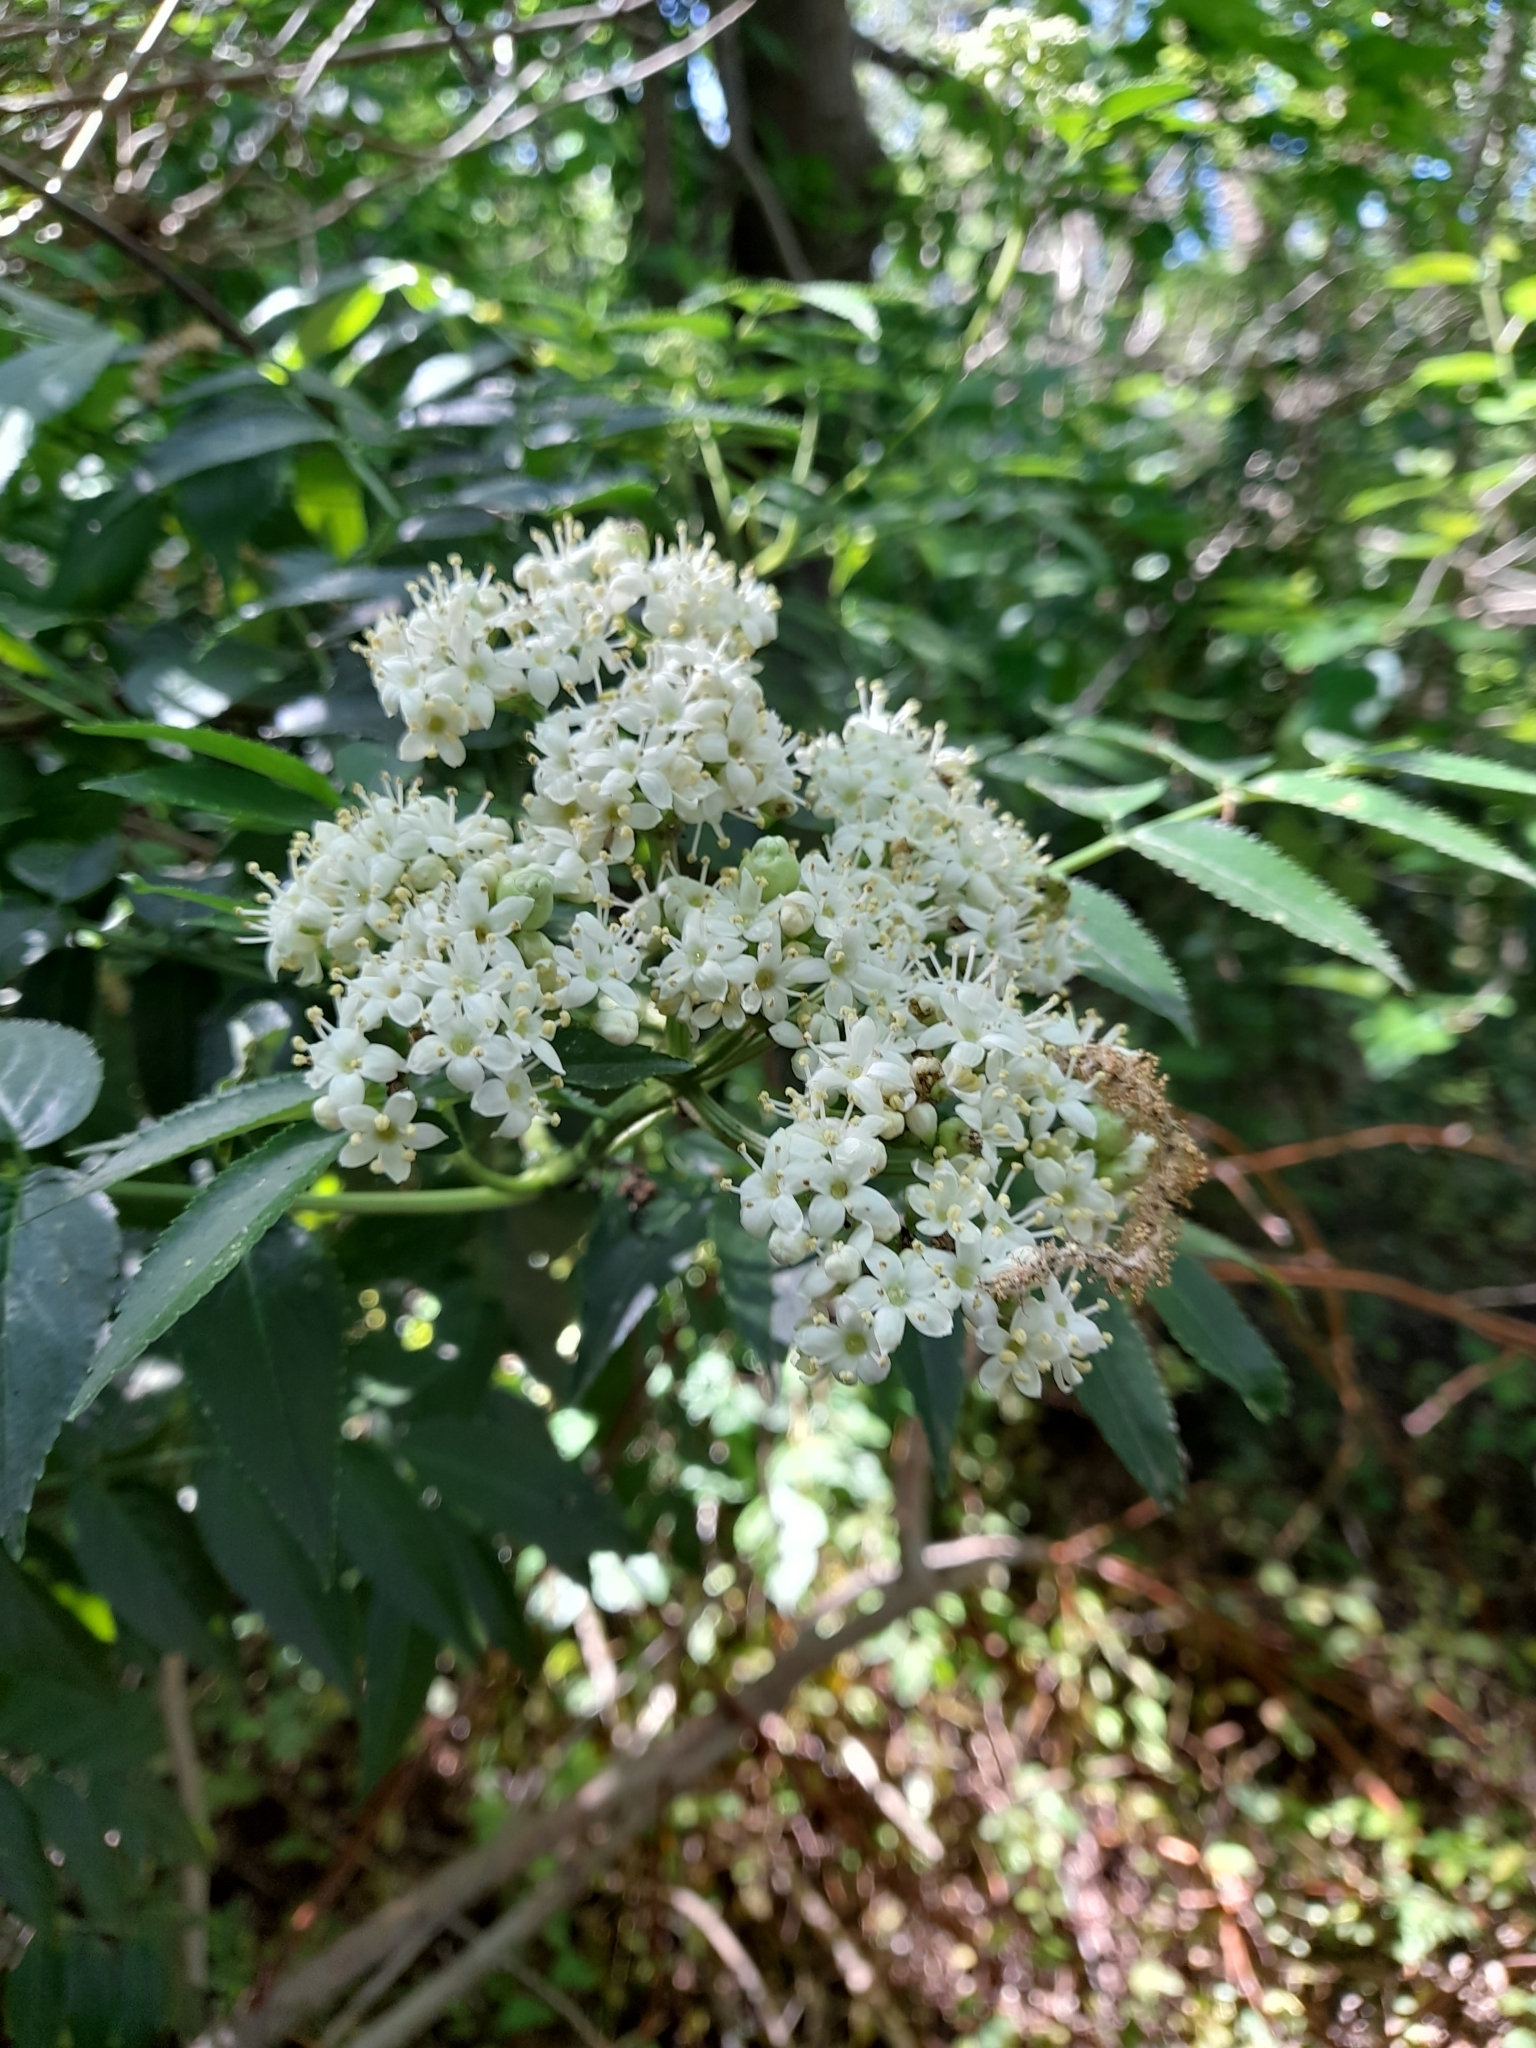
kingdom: Plantae
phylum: Tracheophyta
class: Magnoliopsida
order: Dipsacales
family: Viburnaceae
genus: Sambucus
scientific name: Sambucus australis
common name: Southern elder
